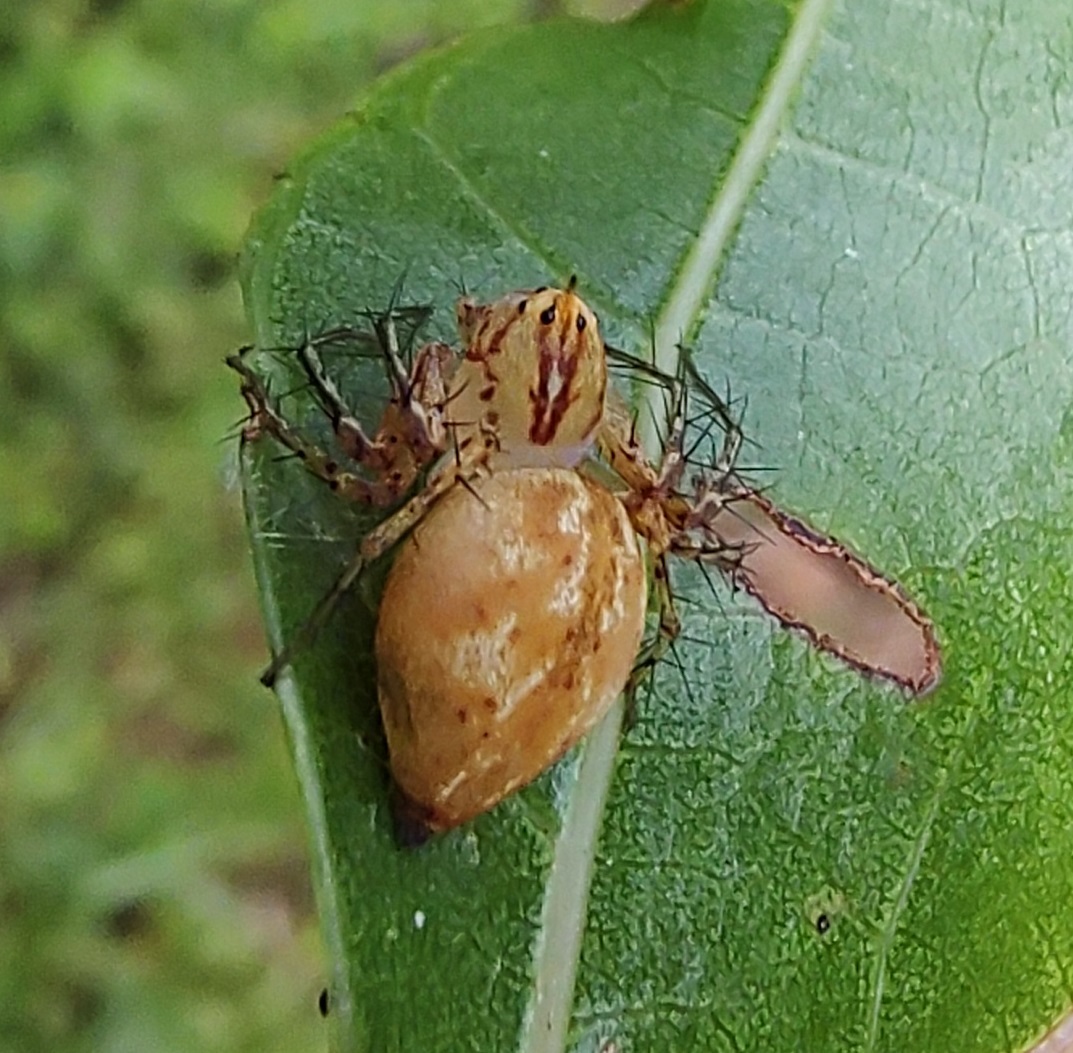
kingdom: Animalia
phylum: Arthropoda
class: Arachnida
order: Araneae
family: Oxyopidae
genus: Oxyopes
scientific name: Oxyopes incertus
